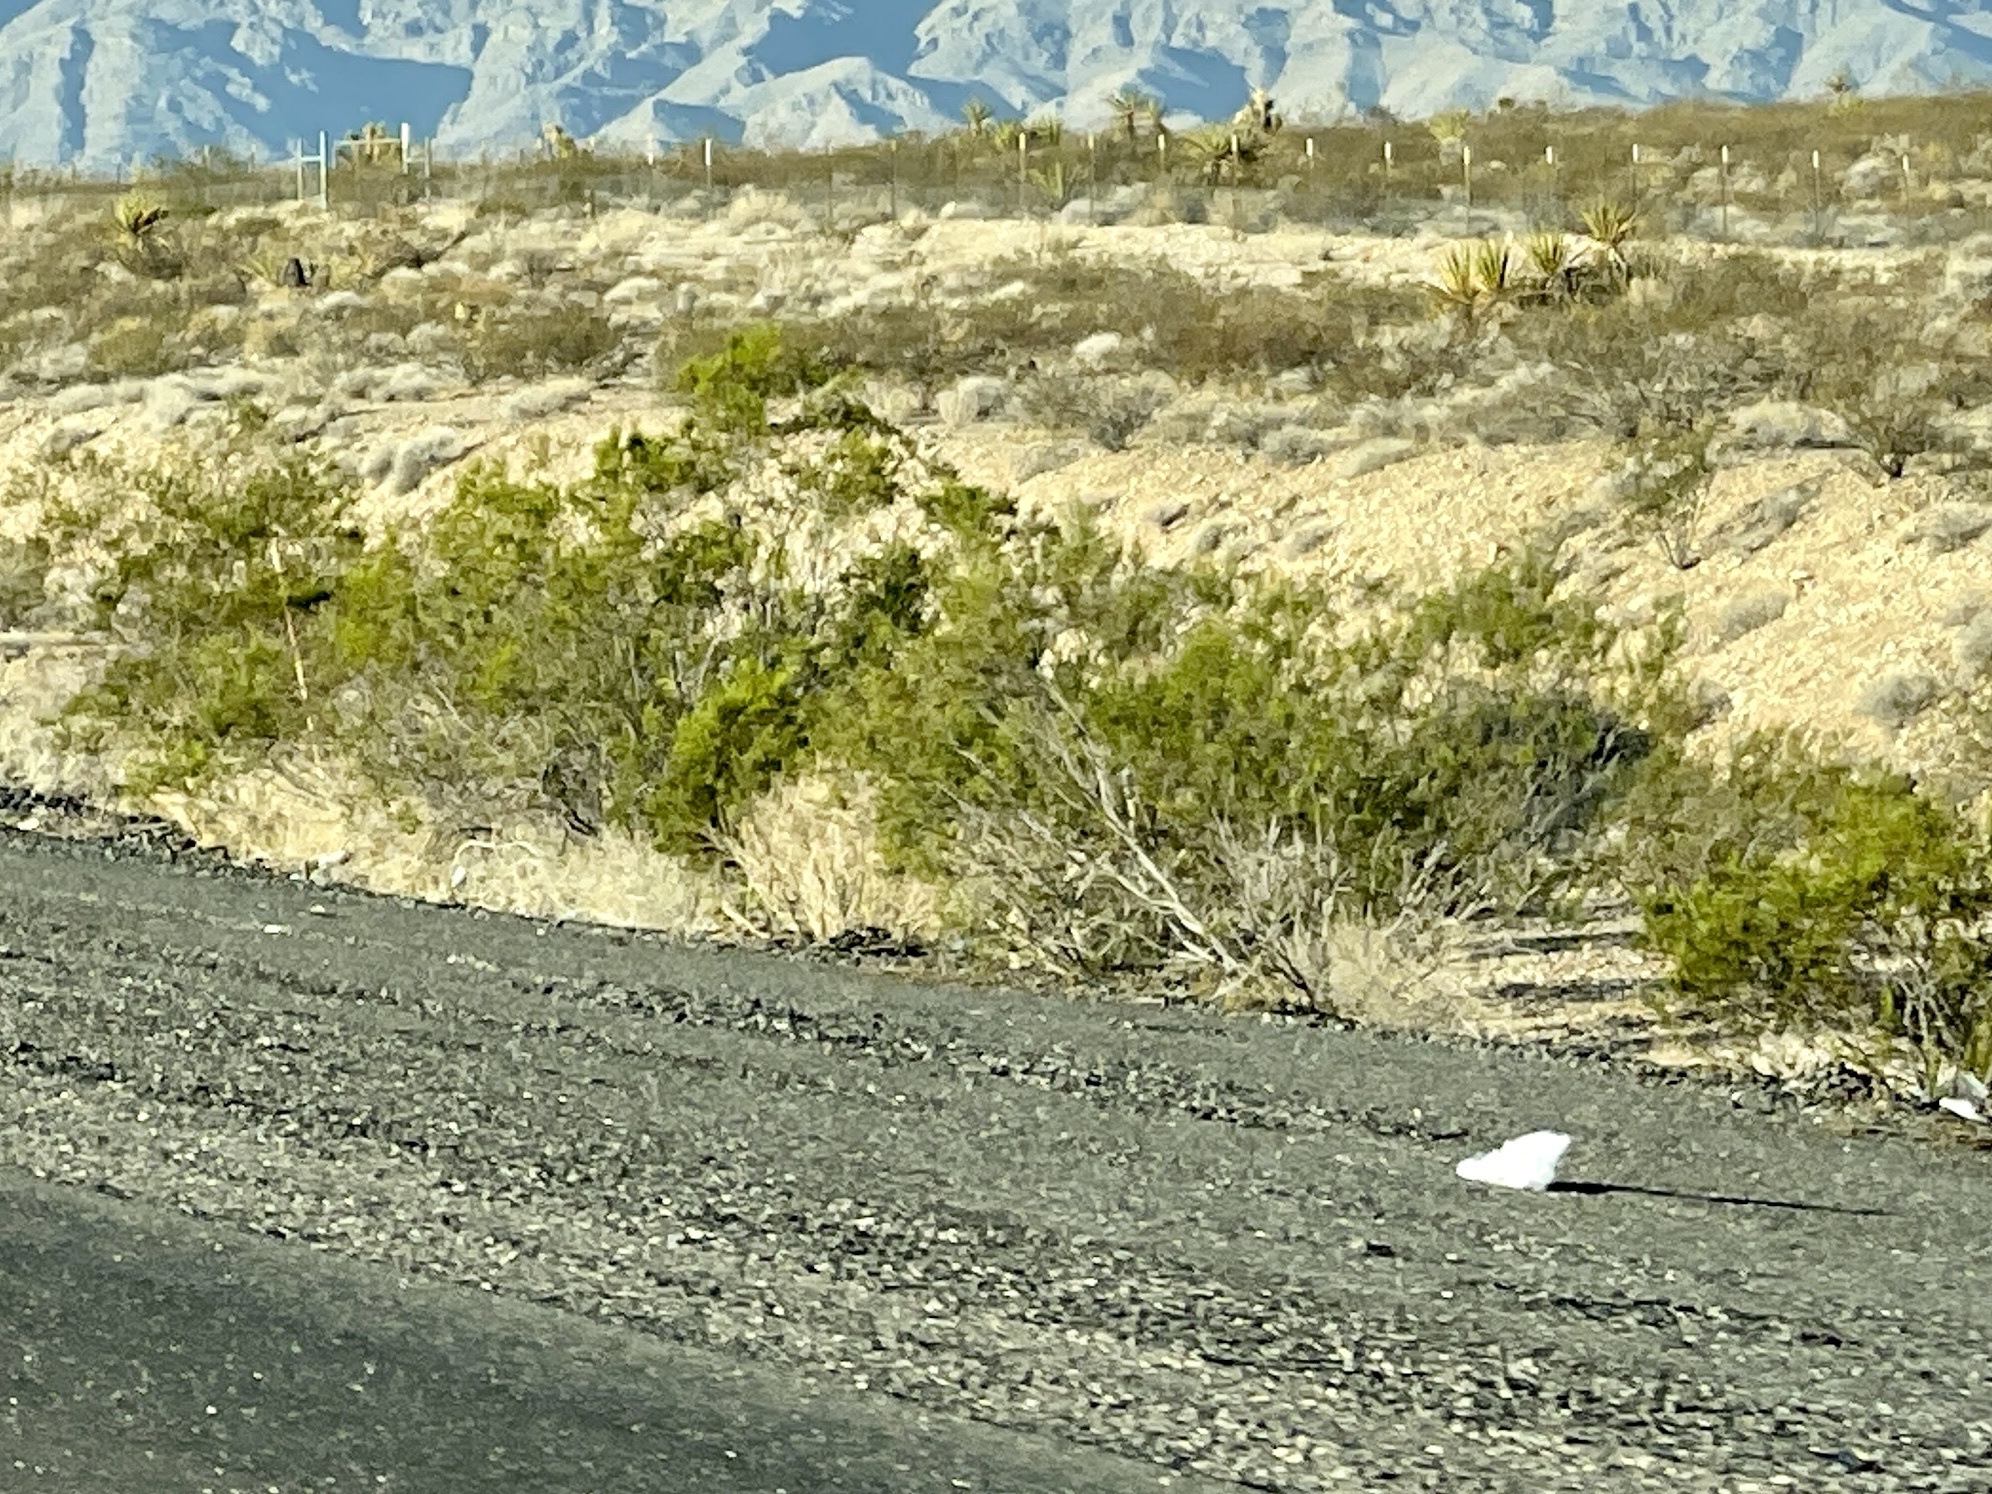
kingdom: Plantae
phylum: Tracheophyta
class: Magnoliopsida
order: Zygophyllales
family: Zygophyllaceae
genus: Larrea
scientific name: Larrea tridentata
